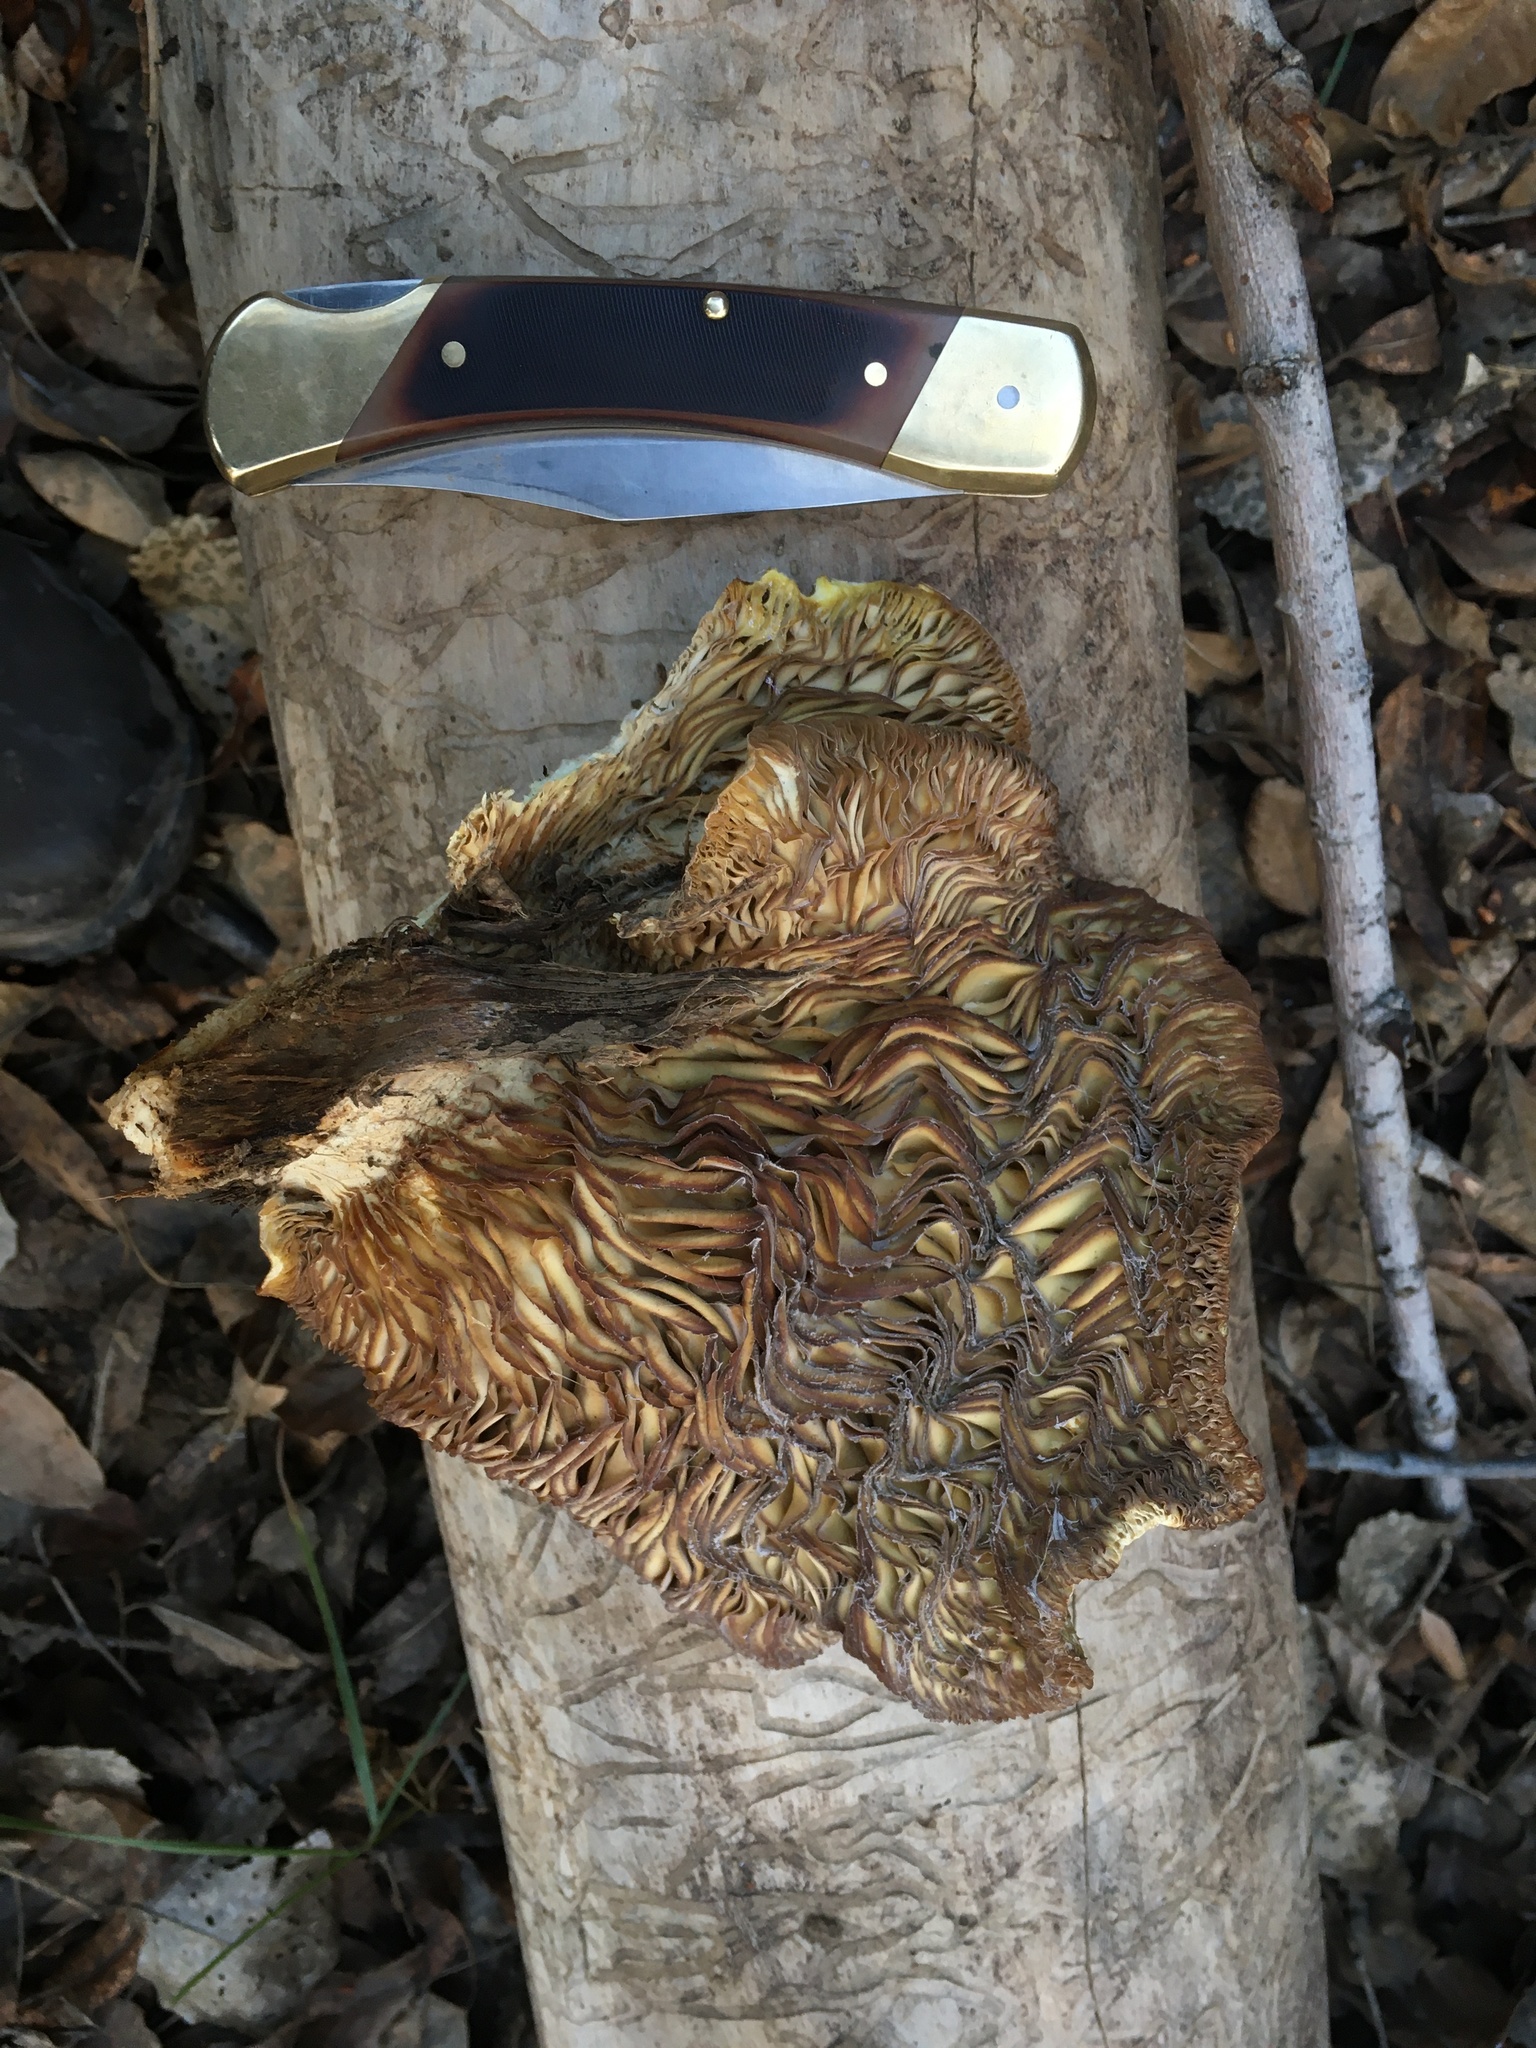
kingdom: Fungi
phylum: Basidiomycota
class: Agaricomycetes
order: Agaricales
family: Pleurotaceae
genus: Pleurotus
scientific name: Pleurotus ostreatus
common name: Oyster mushroom
